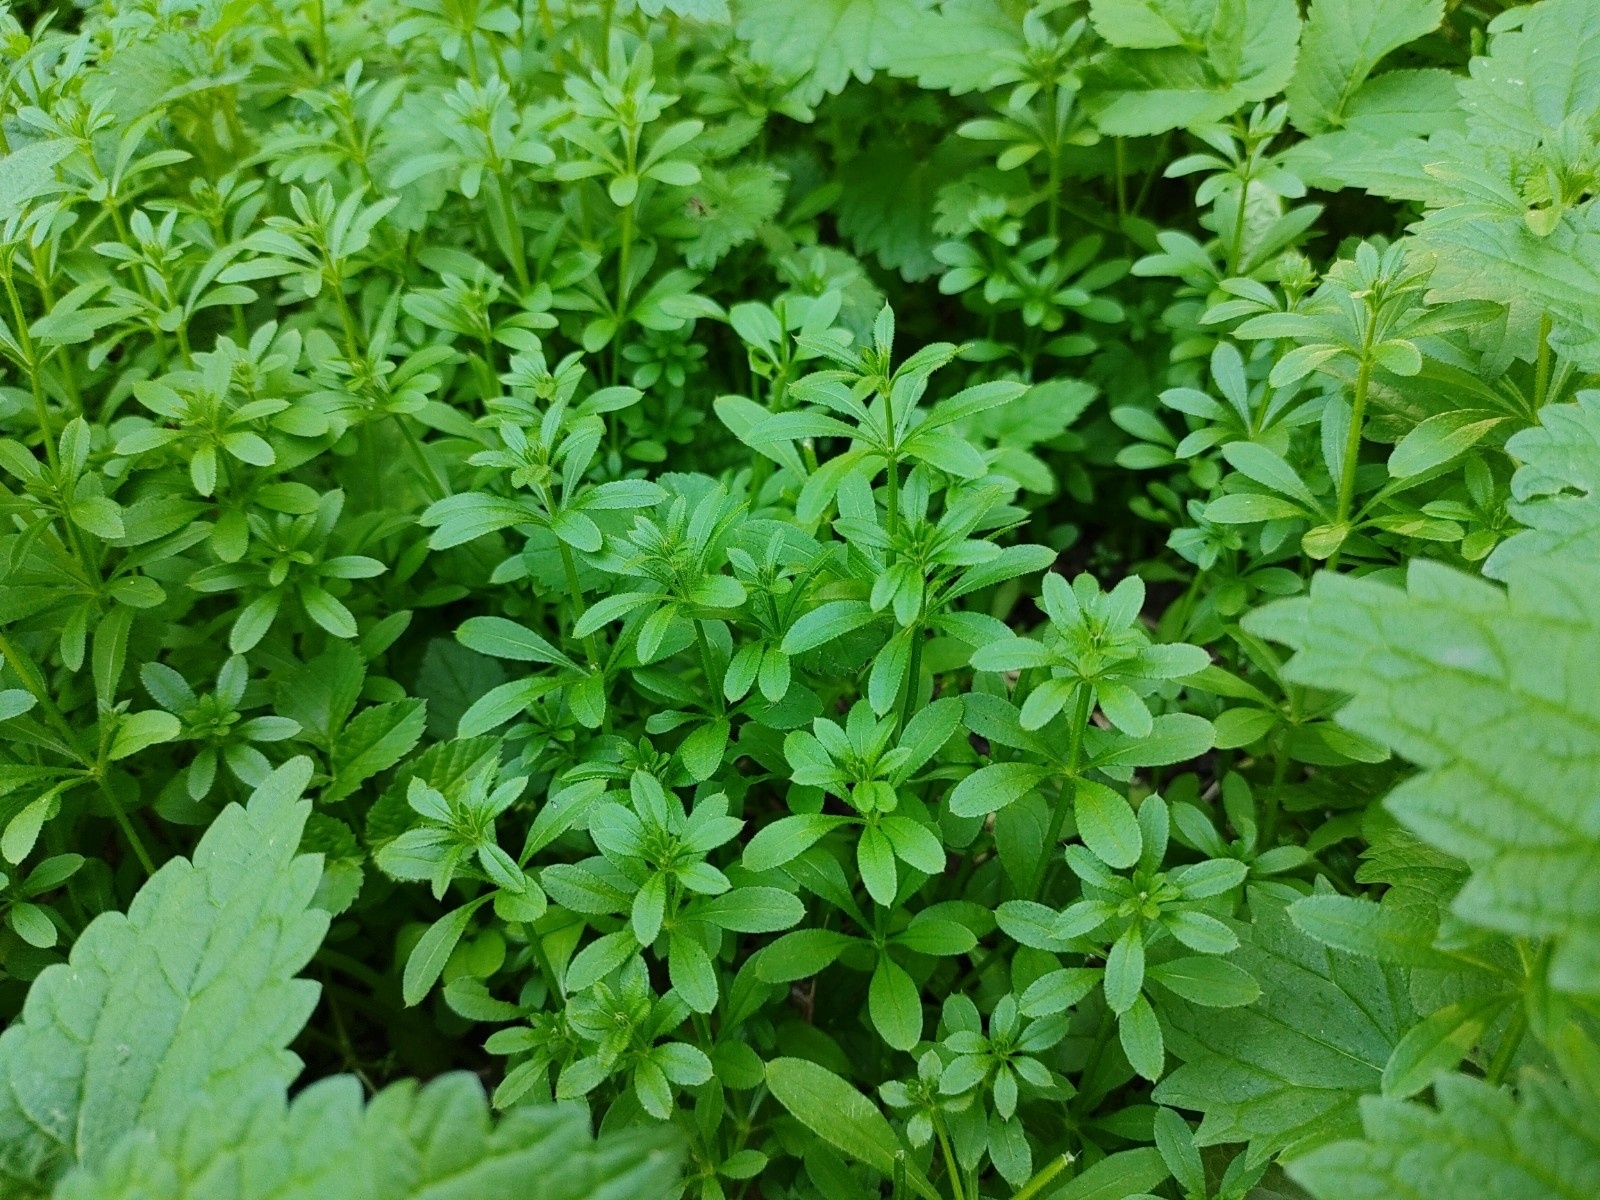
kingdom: Plantae
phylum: Tracheophyta
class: Magnoliopsida
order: Gentianales
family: Rubiaceae
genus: Galium
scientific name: Galium aparine
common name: Cleavers
